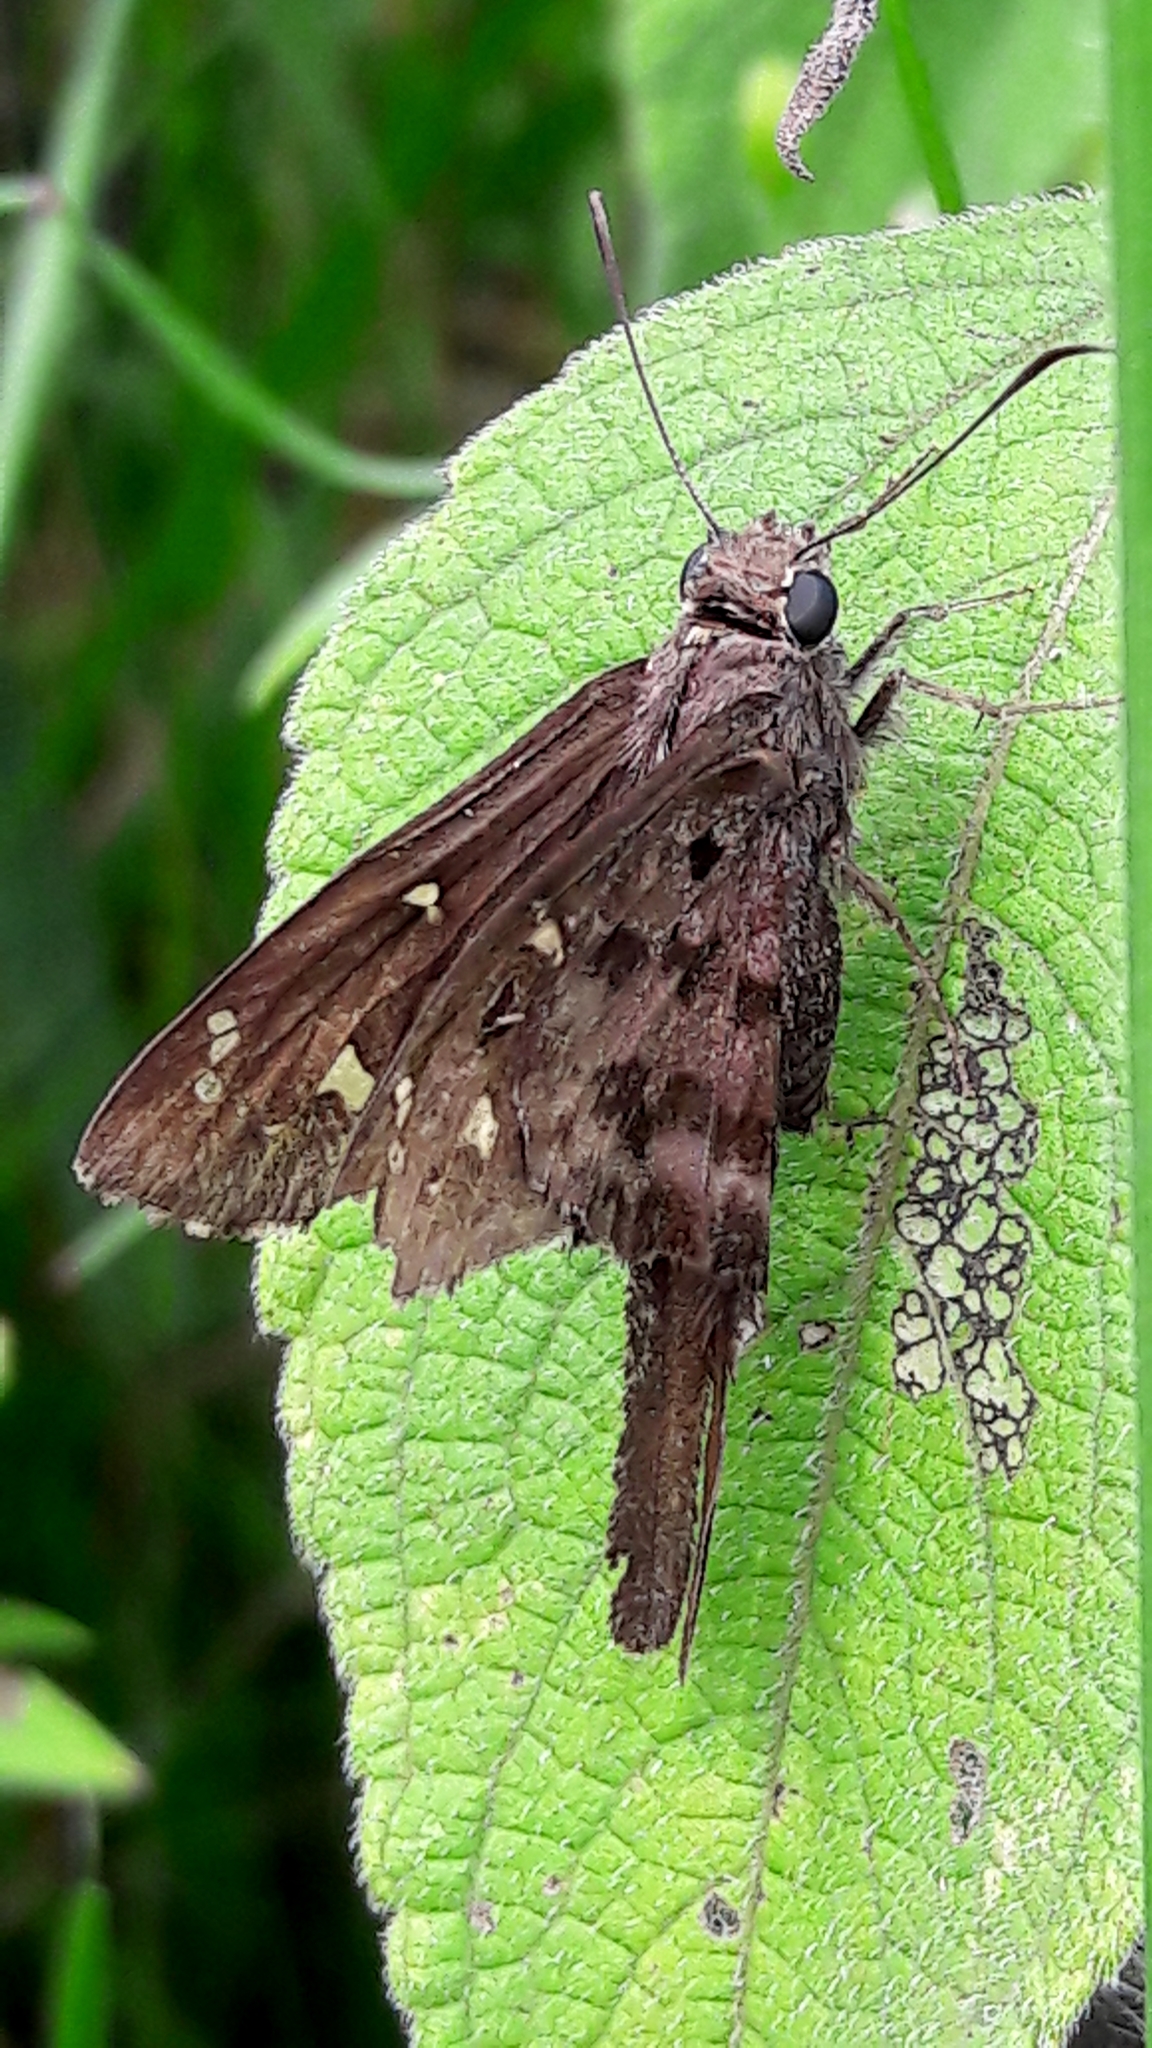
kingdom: Animalia
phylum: Arthropoda
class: Insecta
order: Lepidoptera
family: Hesperiidae
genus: Thorybes
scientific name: Thorybes
